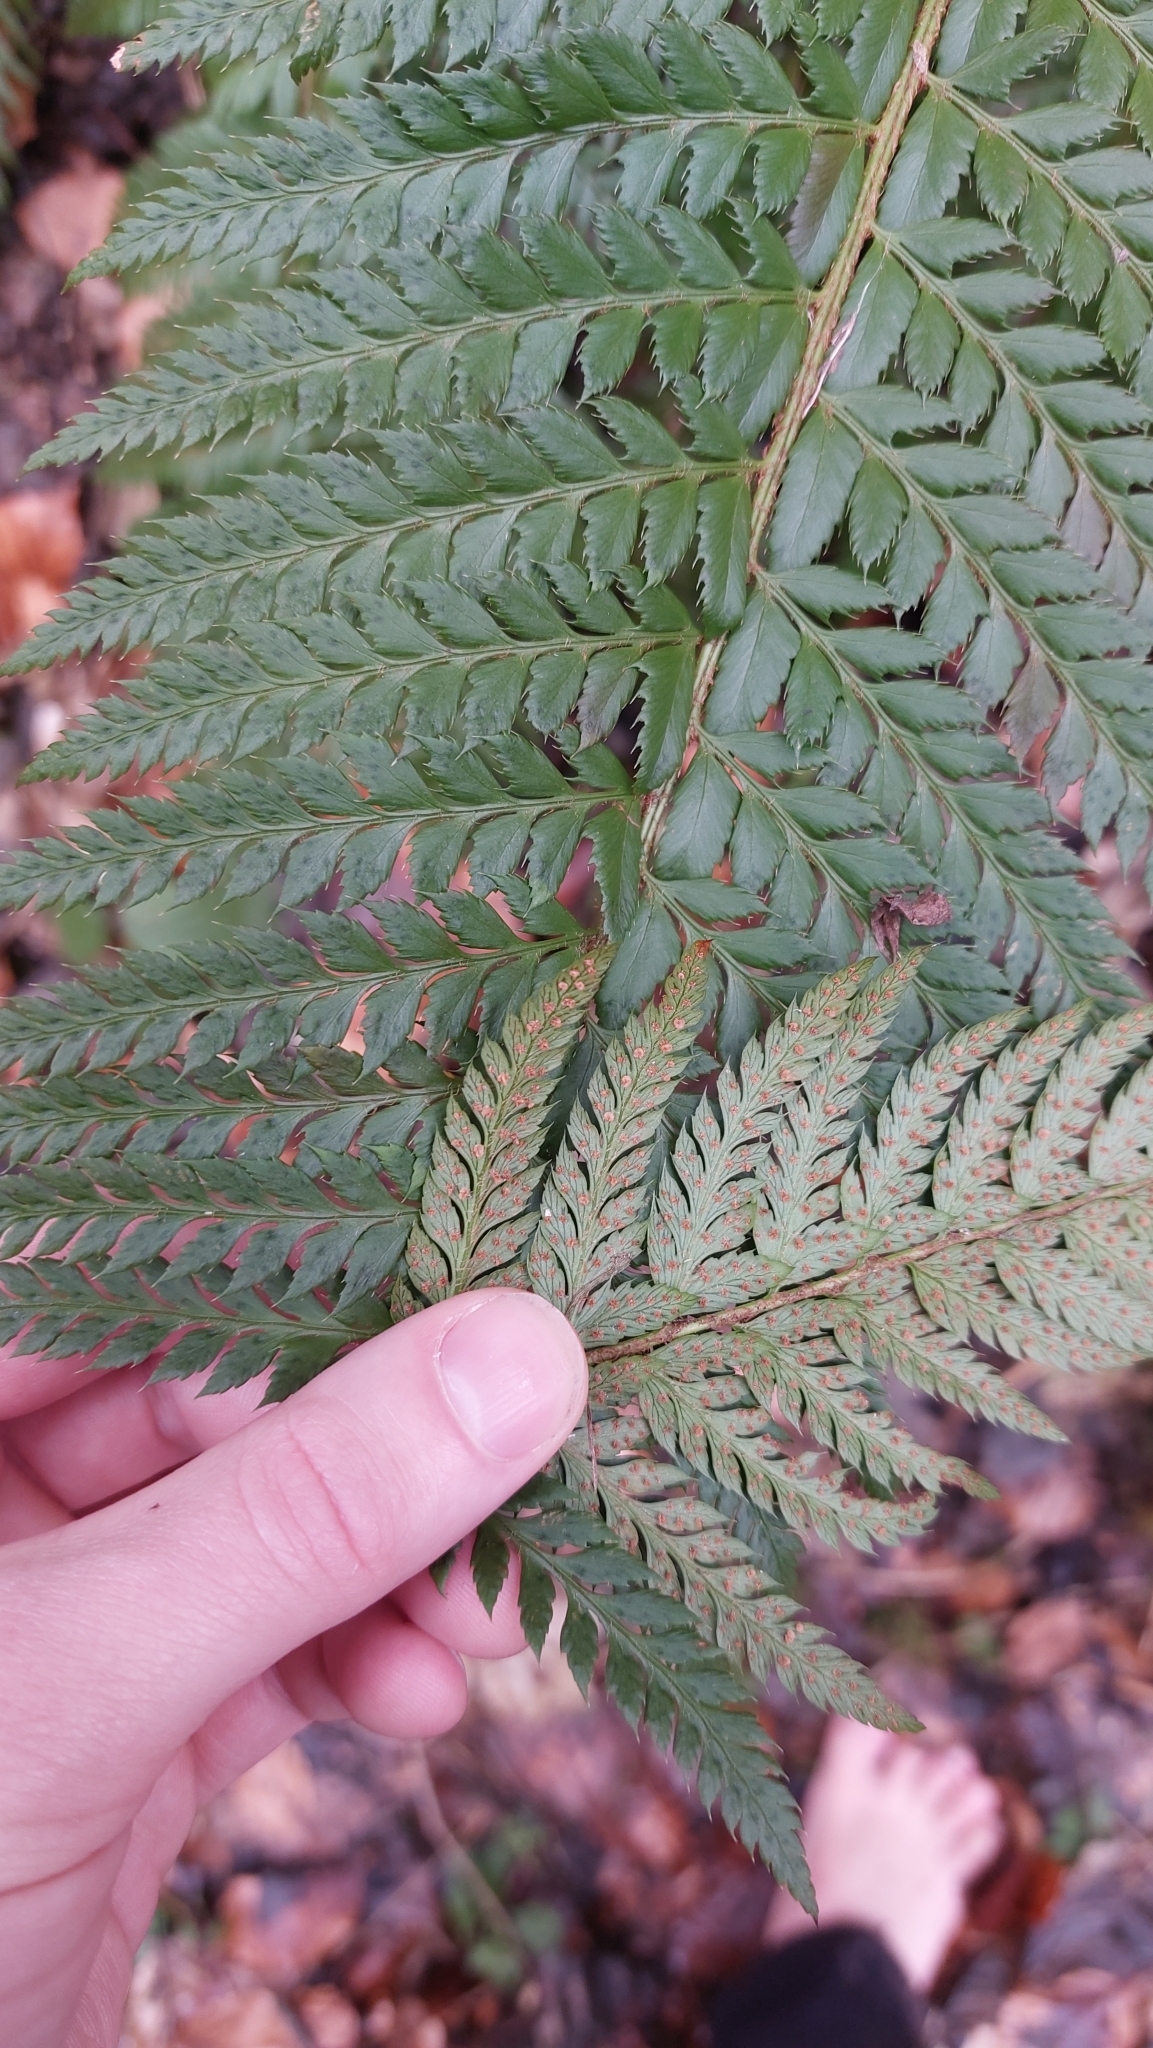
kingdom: Plantae
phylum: Tracheophyta
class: Polypodiopsida
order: Polypodiales
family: Dryopteridaceae
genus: Polystichum
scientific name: Polystichum aculeatum
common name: Hard shield-fern
